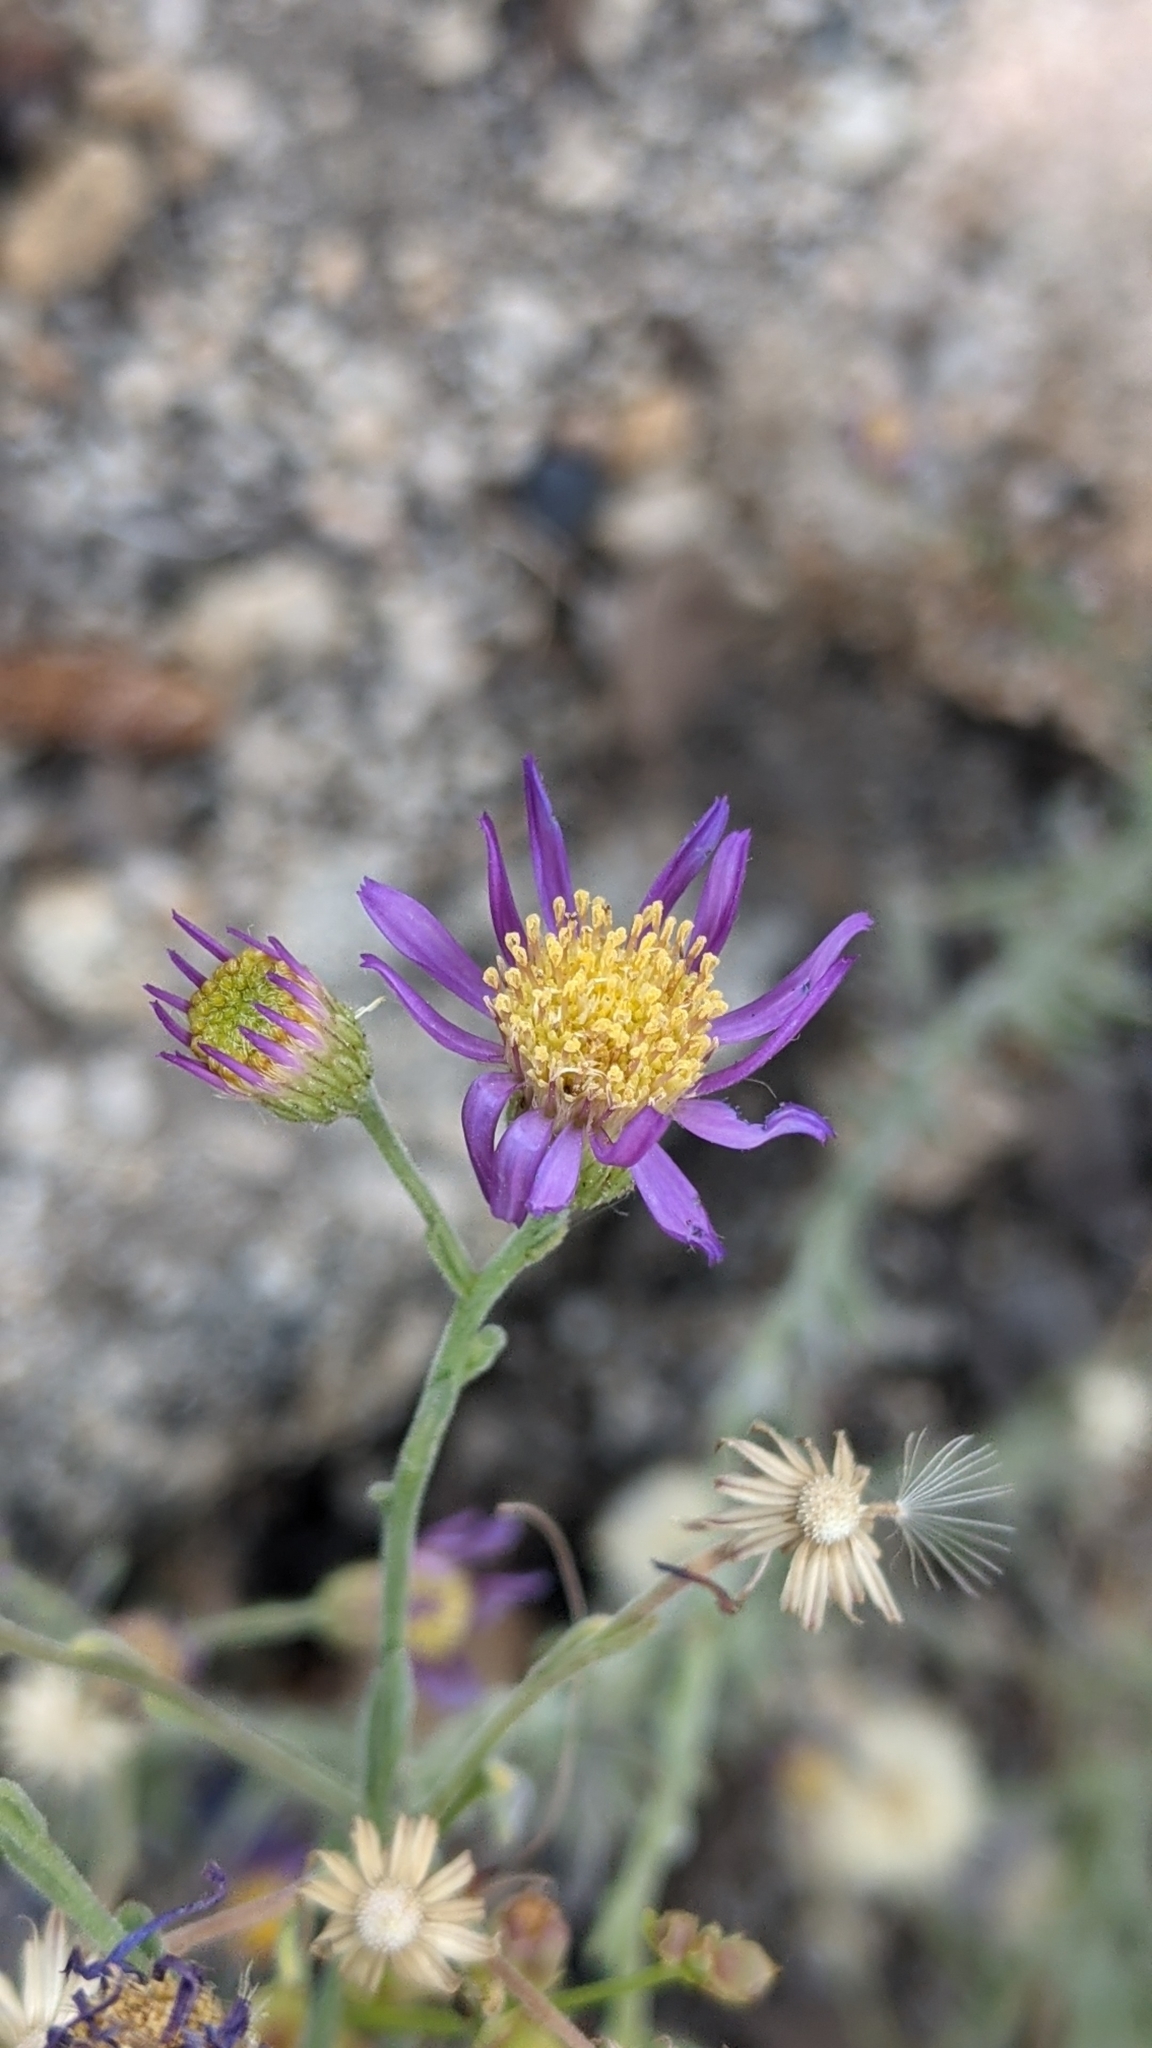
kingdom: Plantae
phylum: Tracheophyta
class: Magnoliopsida
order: Asterales
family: Asteraceae
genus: Dieteria
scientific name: Dieteria canescens
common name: Hoary-aster
